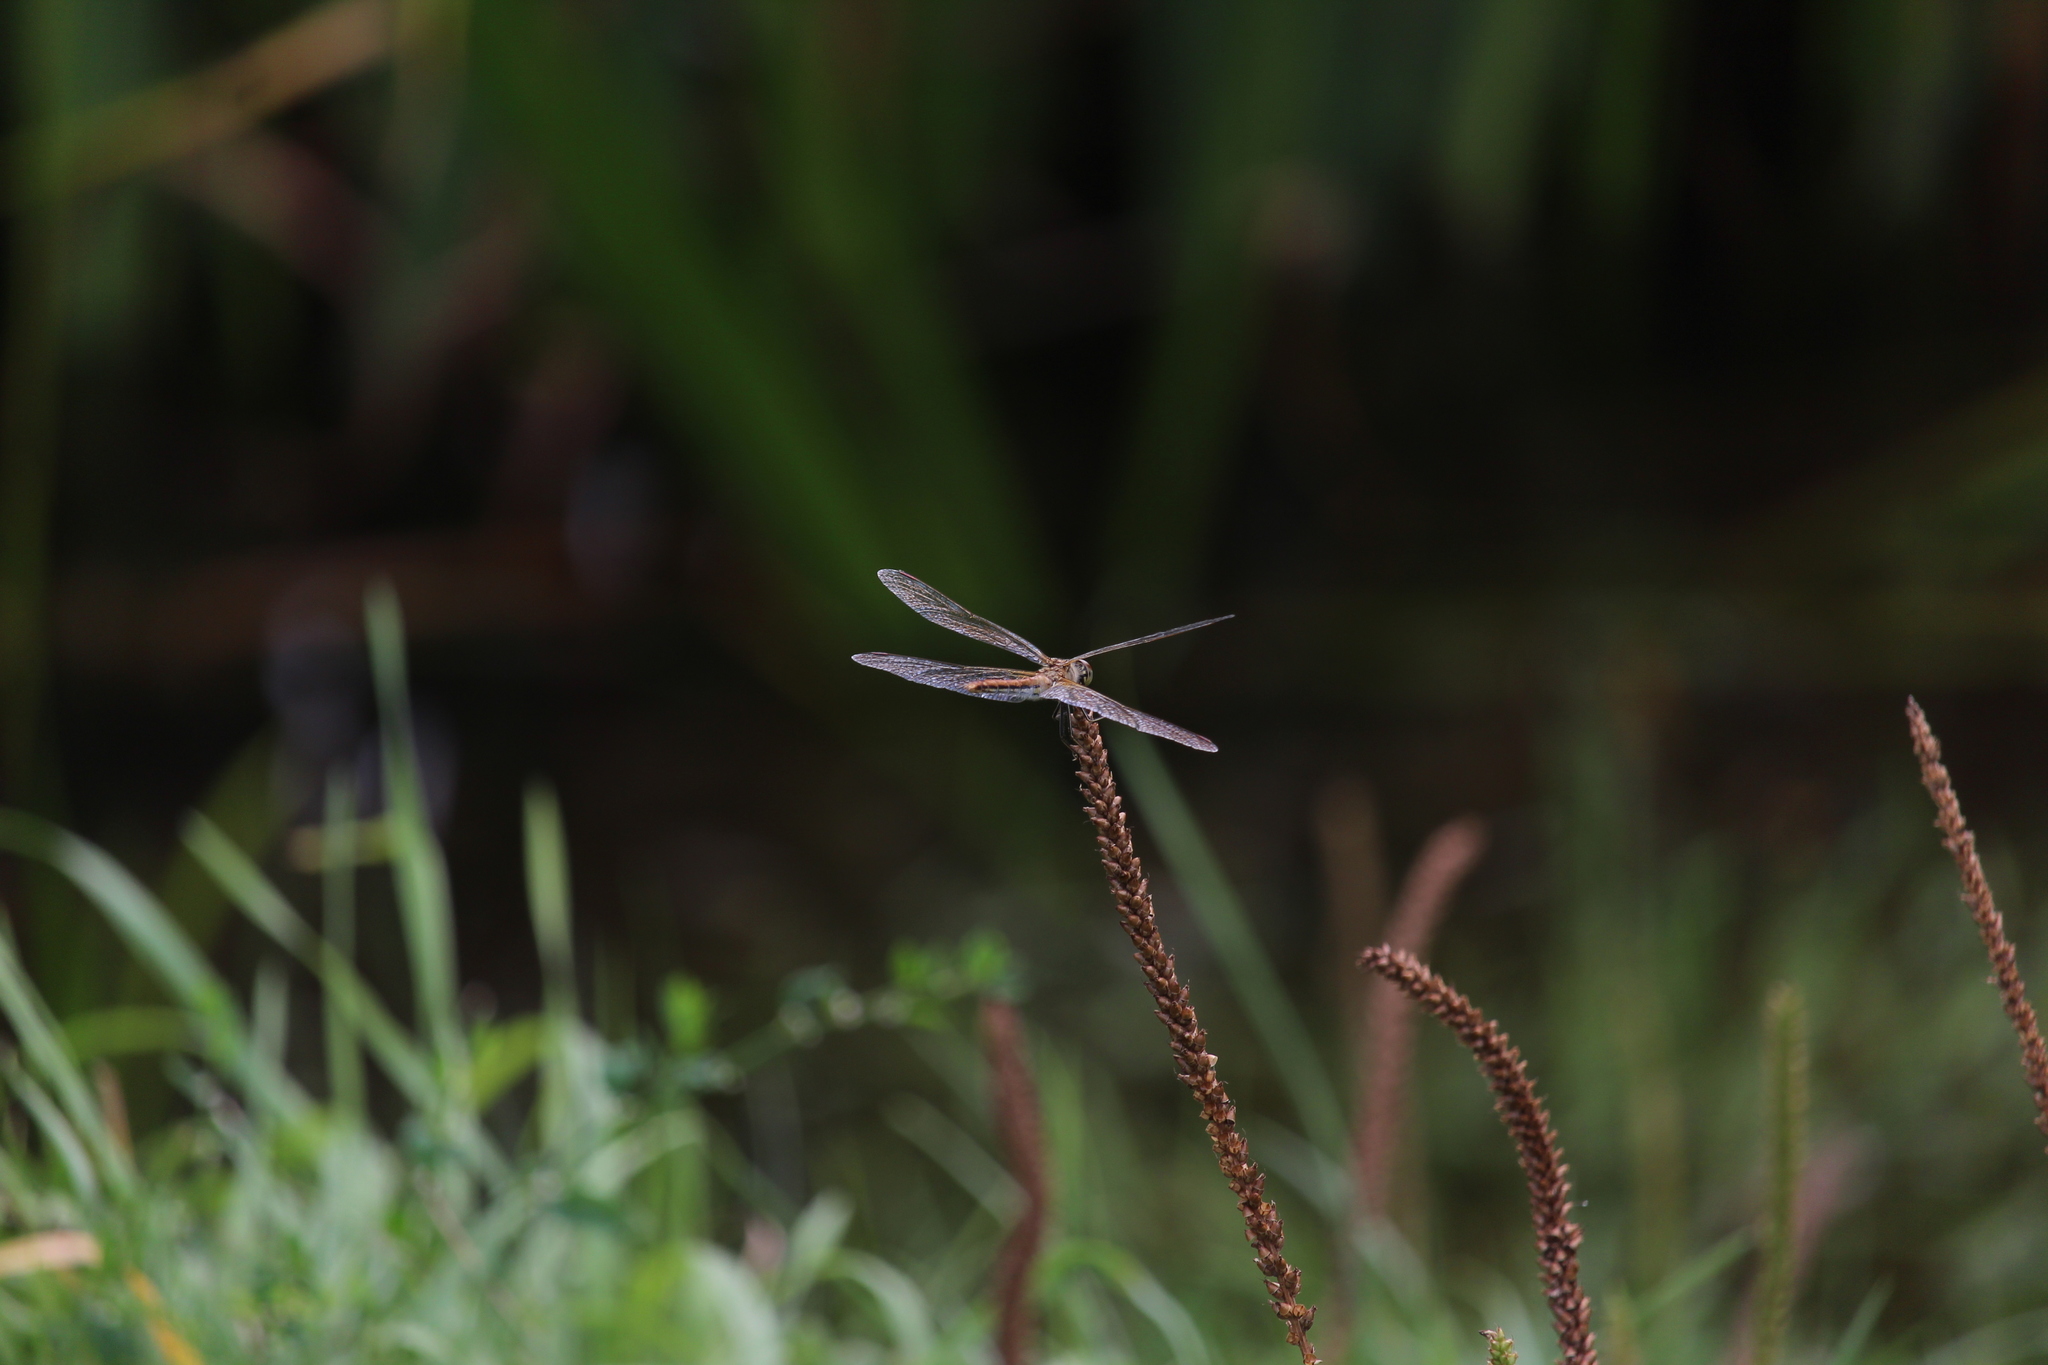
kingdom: Animalia
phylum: Arthropoda
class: Insecta
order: Odonata
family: Libellulidae
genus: Sympetrum
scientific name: Sympetrum flaveolum
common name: Yellow-winged darter
